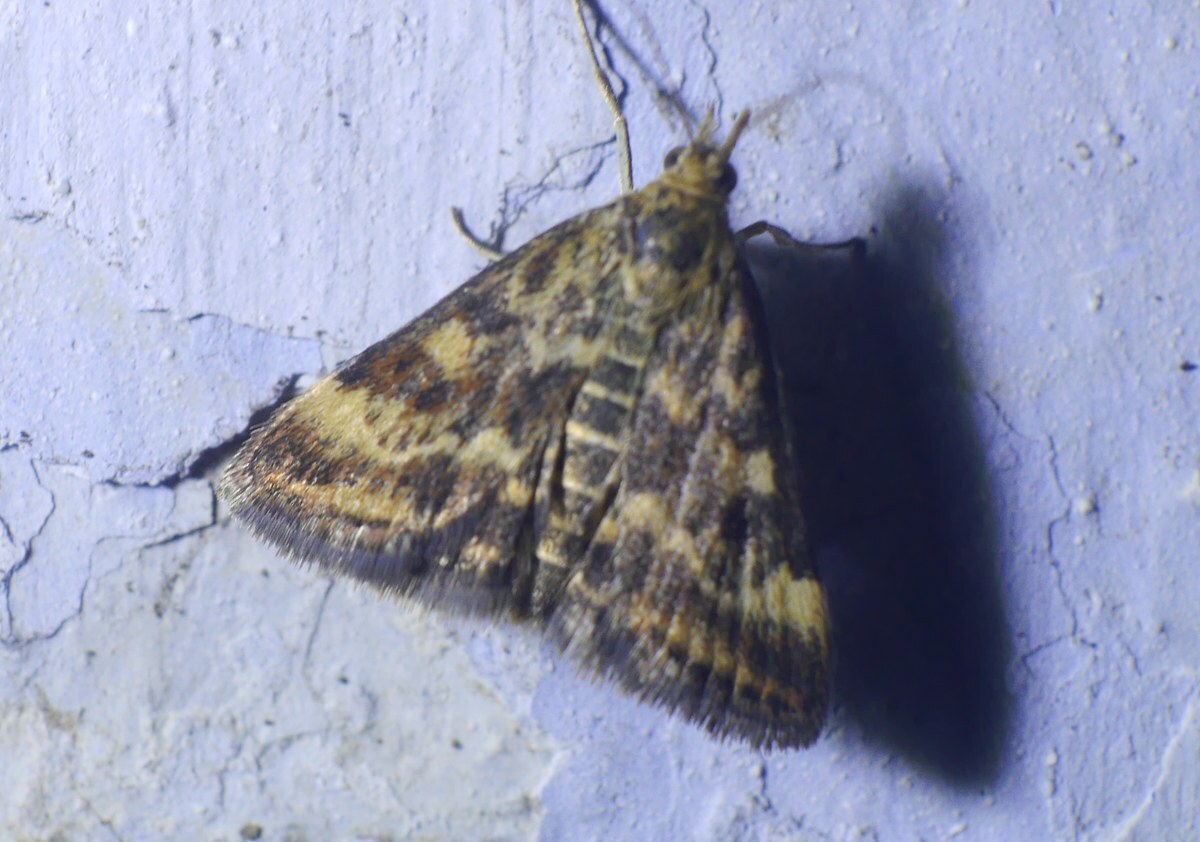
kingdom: Animalia
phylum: Arthropoda
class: Insecta
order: Lepidoptera
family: Crambidae
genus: Pyrausta
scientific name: Pyrausta despicata
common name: Straw-barred pearl
